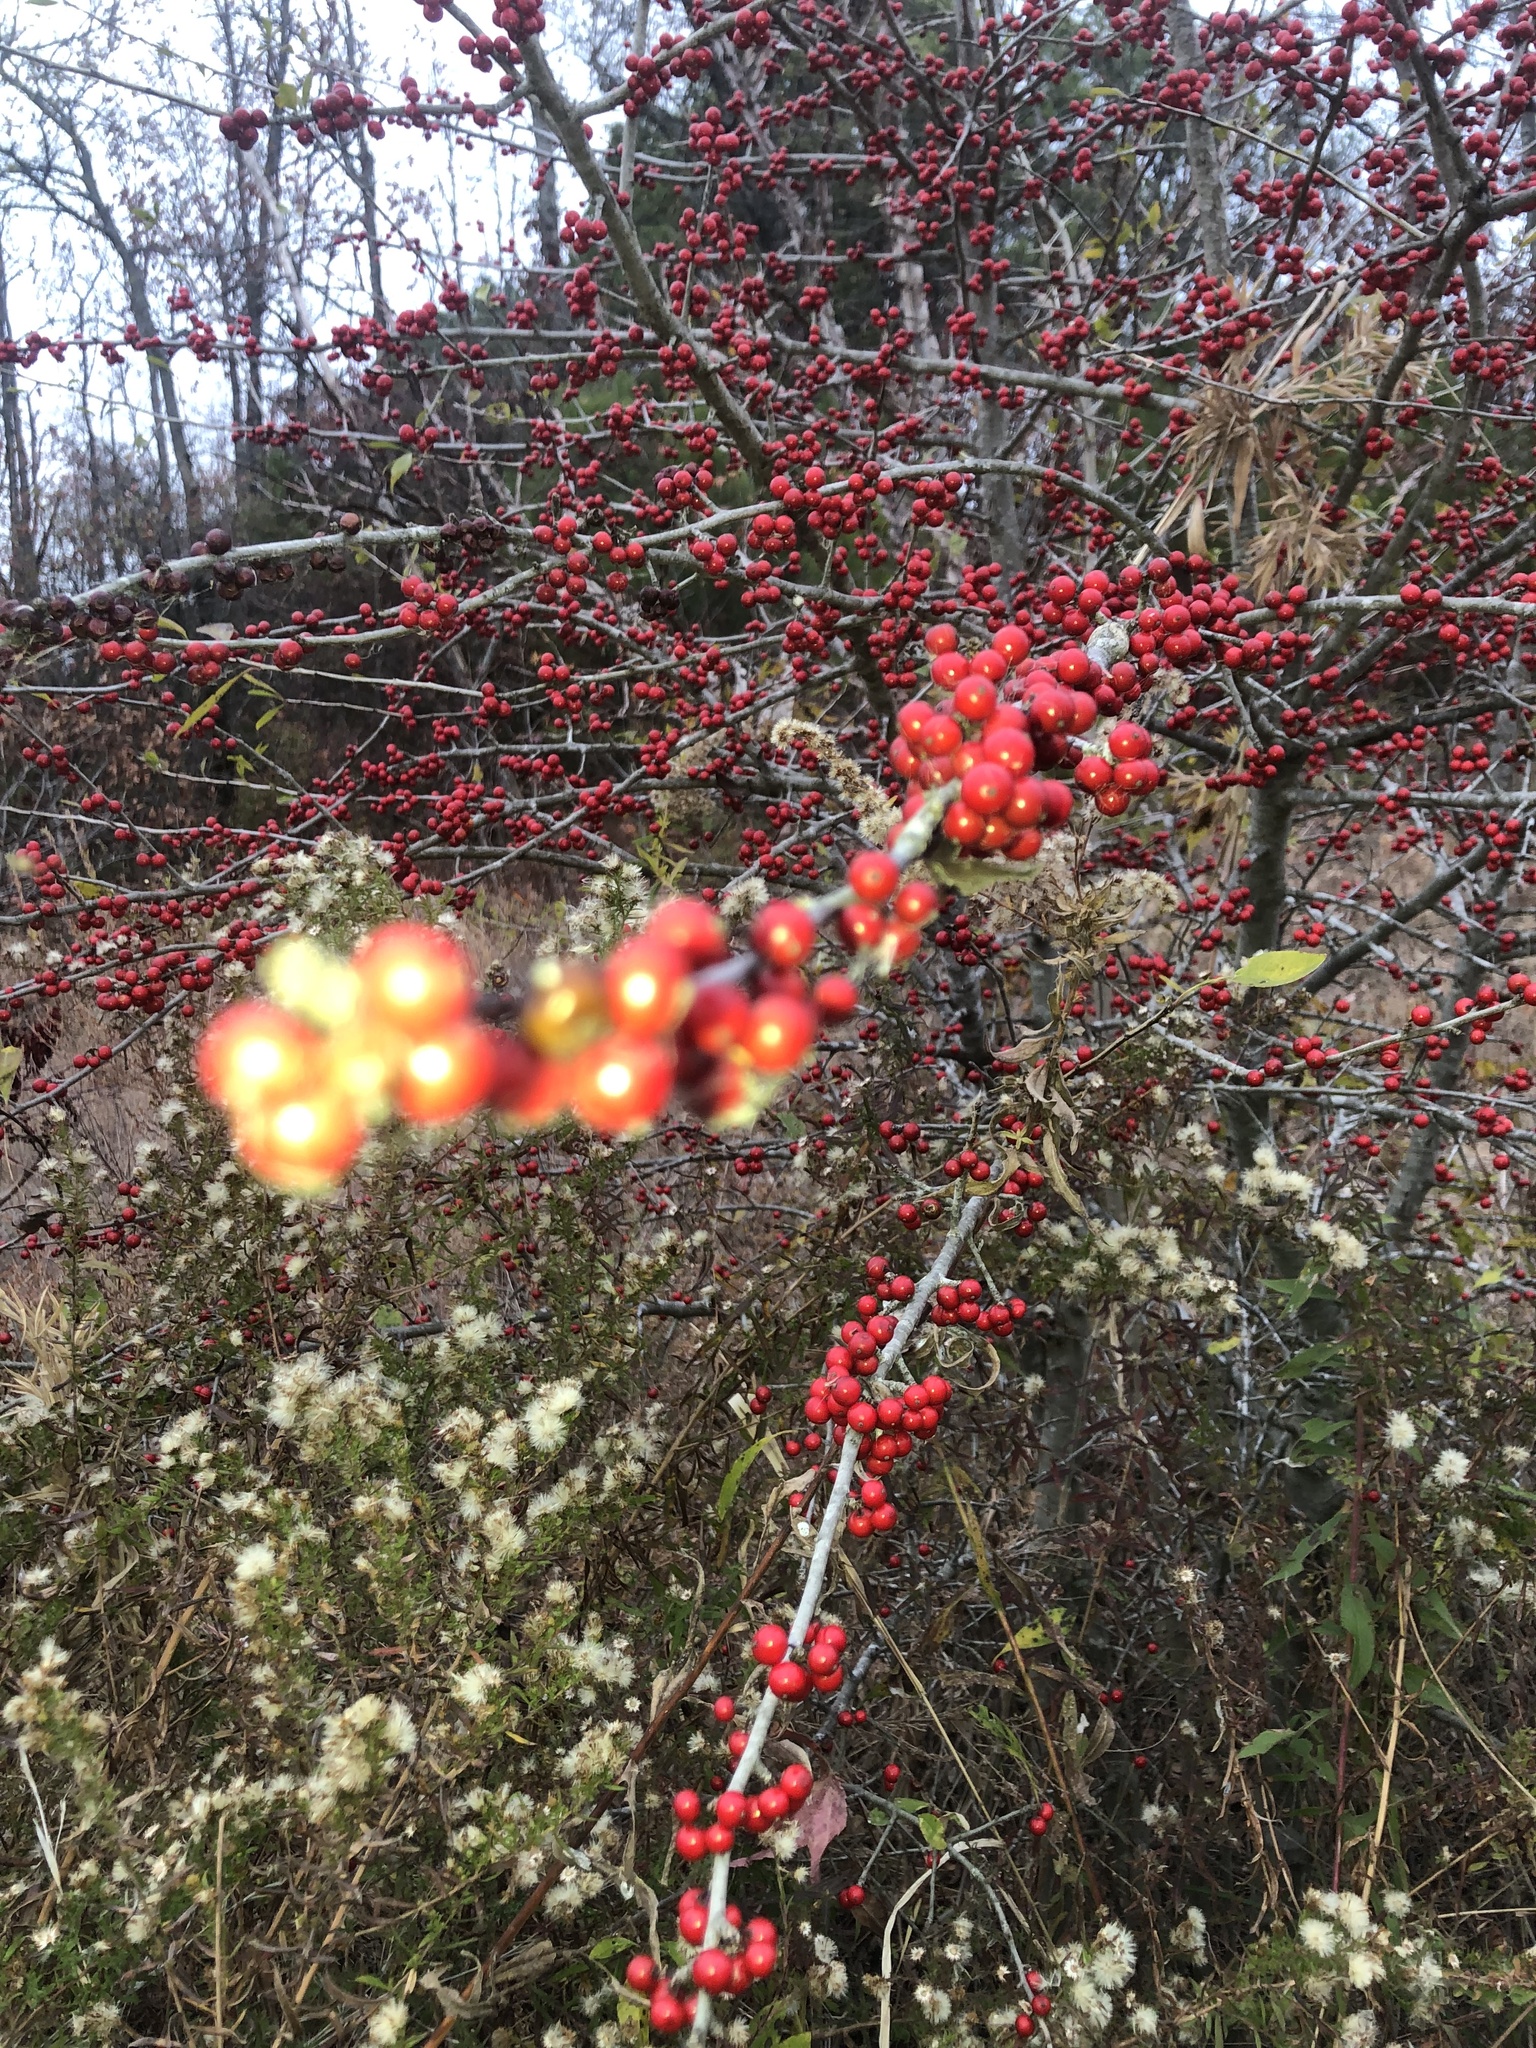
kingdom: Plantae
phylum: Tracheophyta
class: Magnoliopsida
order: Aquifoliales
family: Aquifoliaceae
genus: Ilex
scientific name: Ilex decidua
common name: Possum-haw
